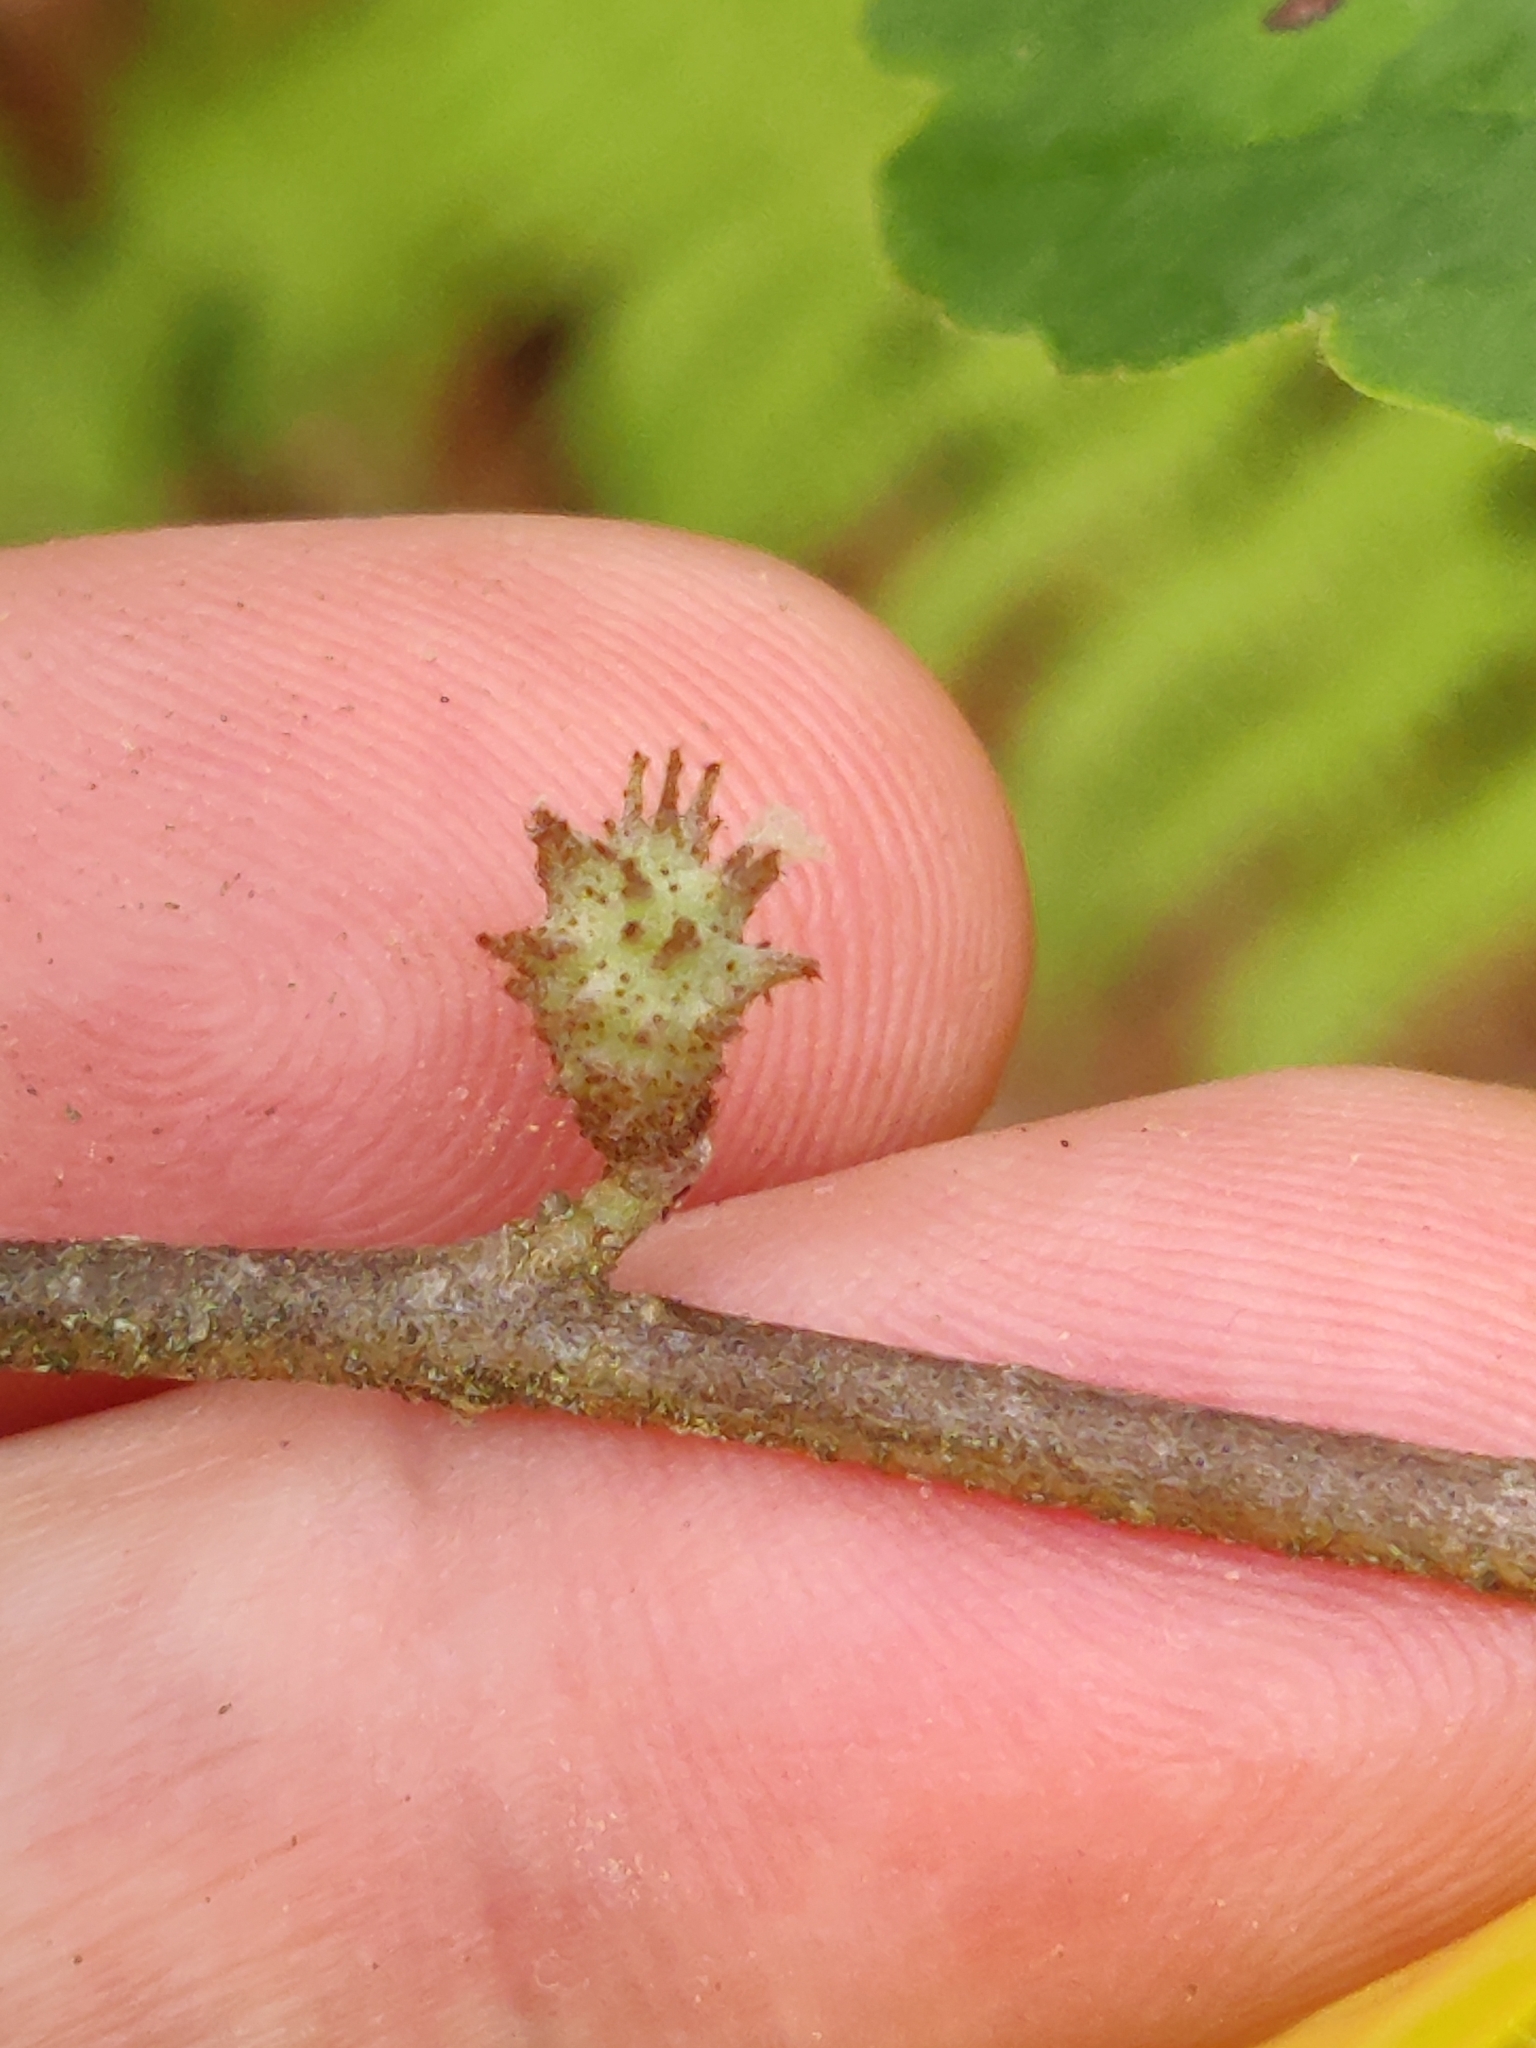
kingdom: Animalia
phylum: Arthropoda
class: Insecta
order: Hemiptera
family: Aphididae
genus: Hamamelistes
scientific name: Hamamelistes spinosus
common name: Witch hazel gall aphid
